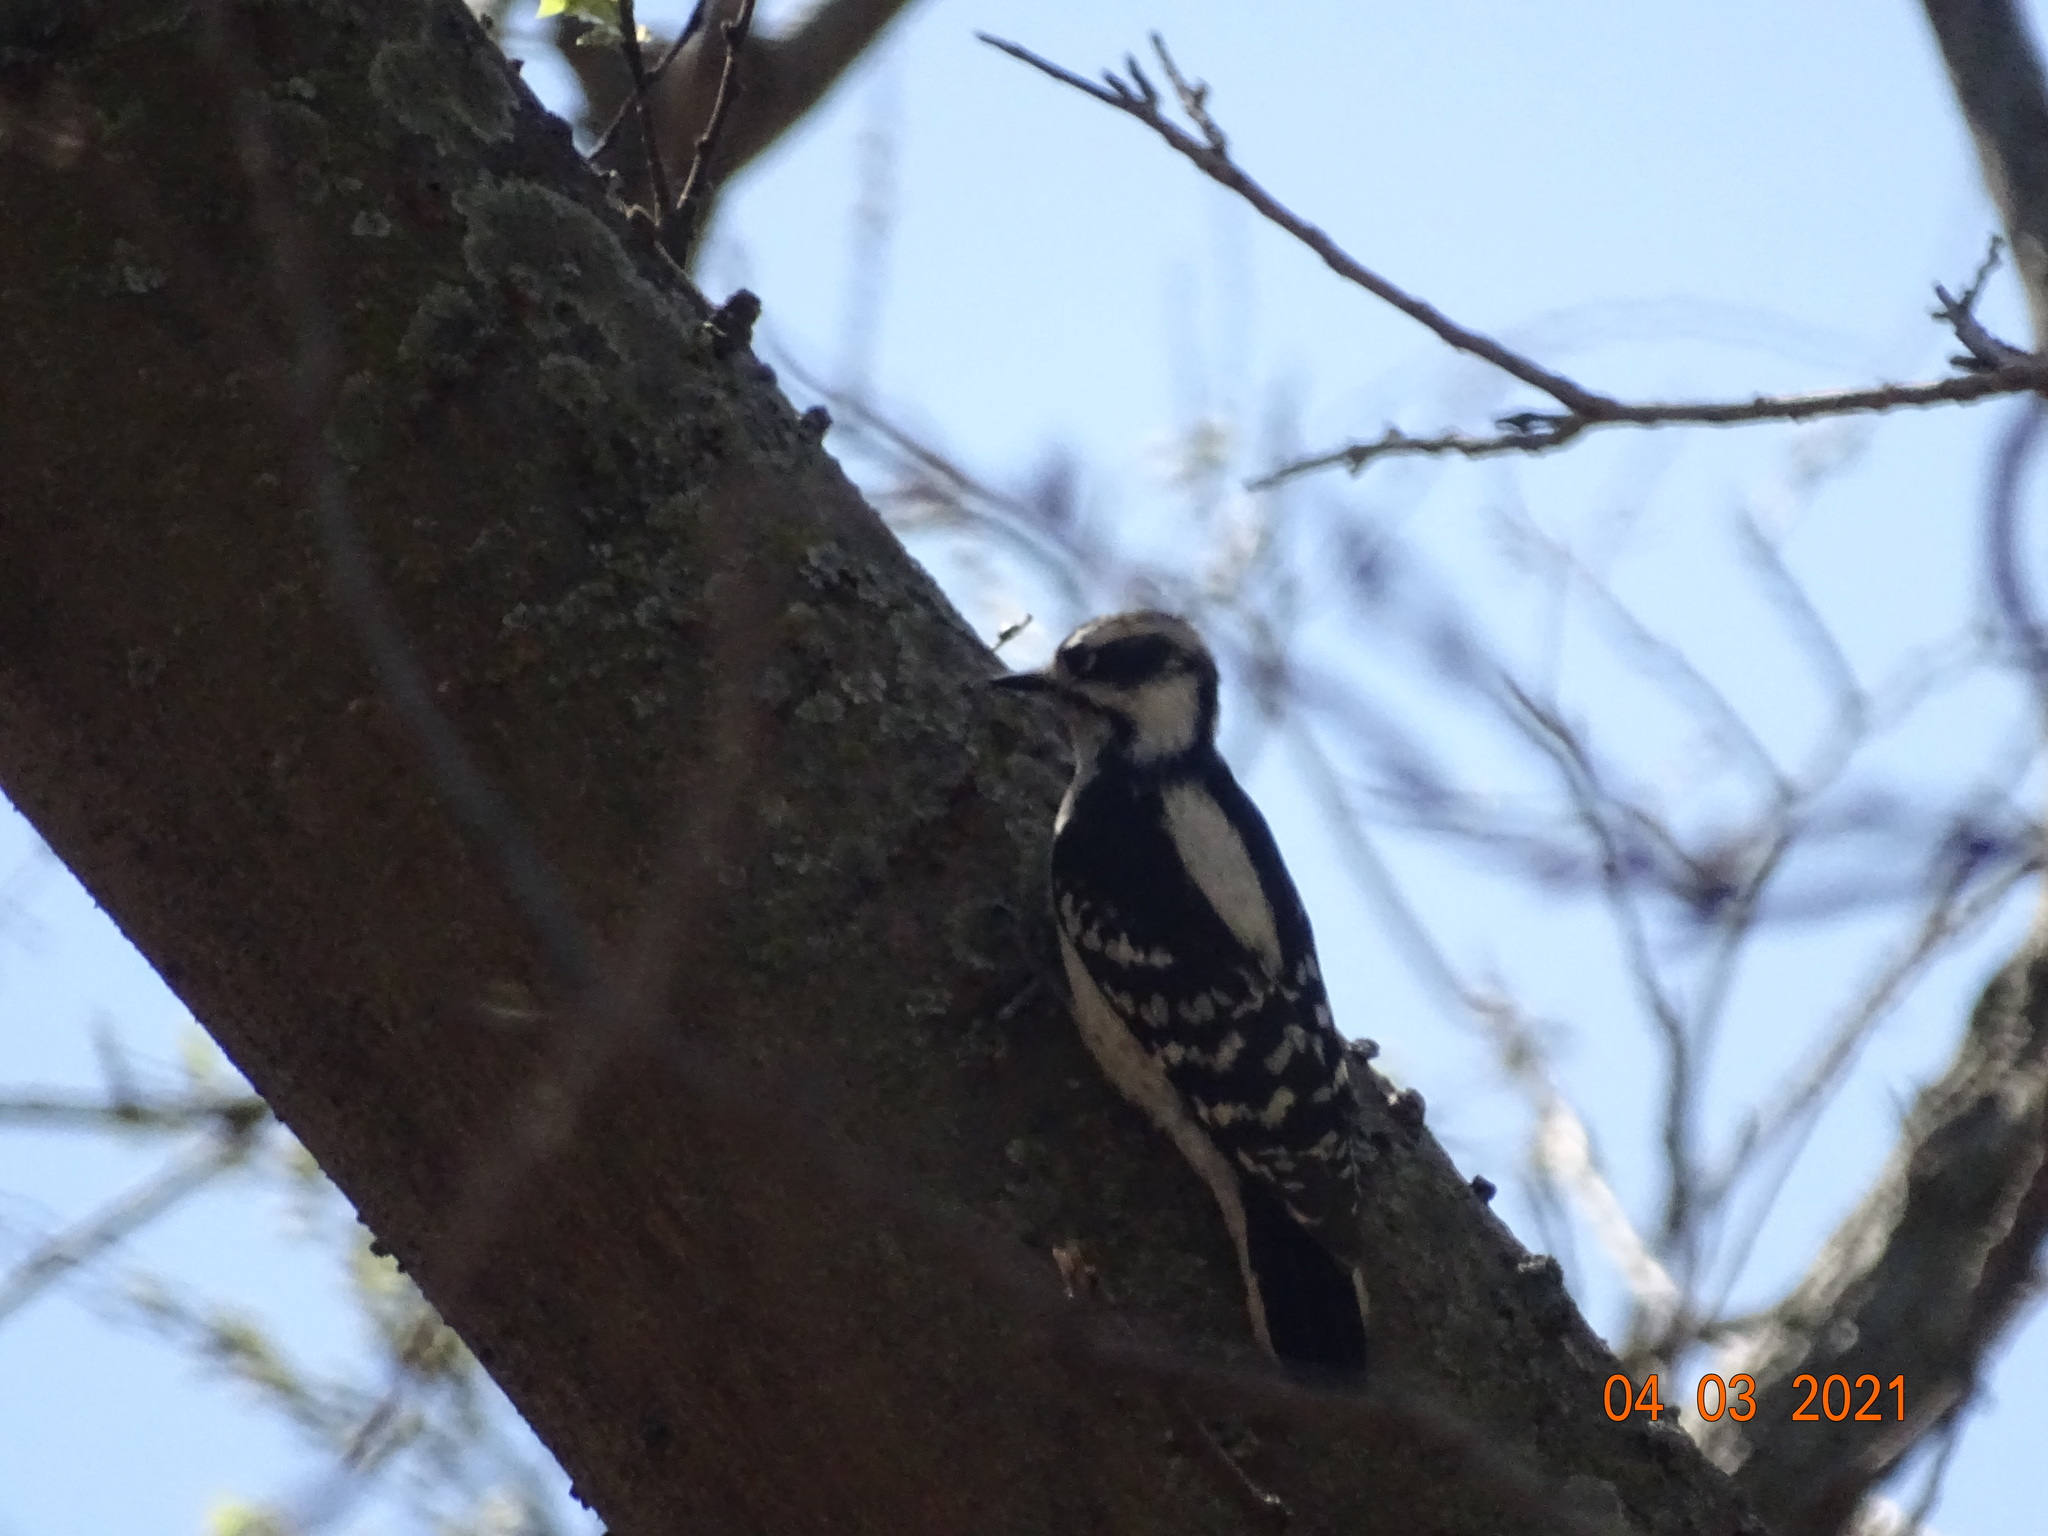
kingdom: Animalia
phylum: Chordata
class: Aves
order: Piciformes
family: Picidae
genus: Dryobates
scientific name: Dryobates pubescens
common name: Downy woodpecker
